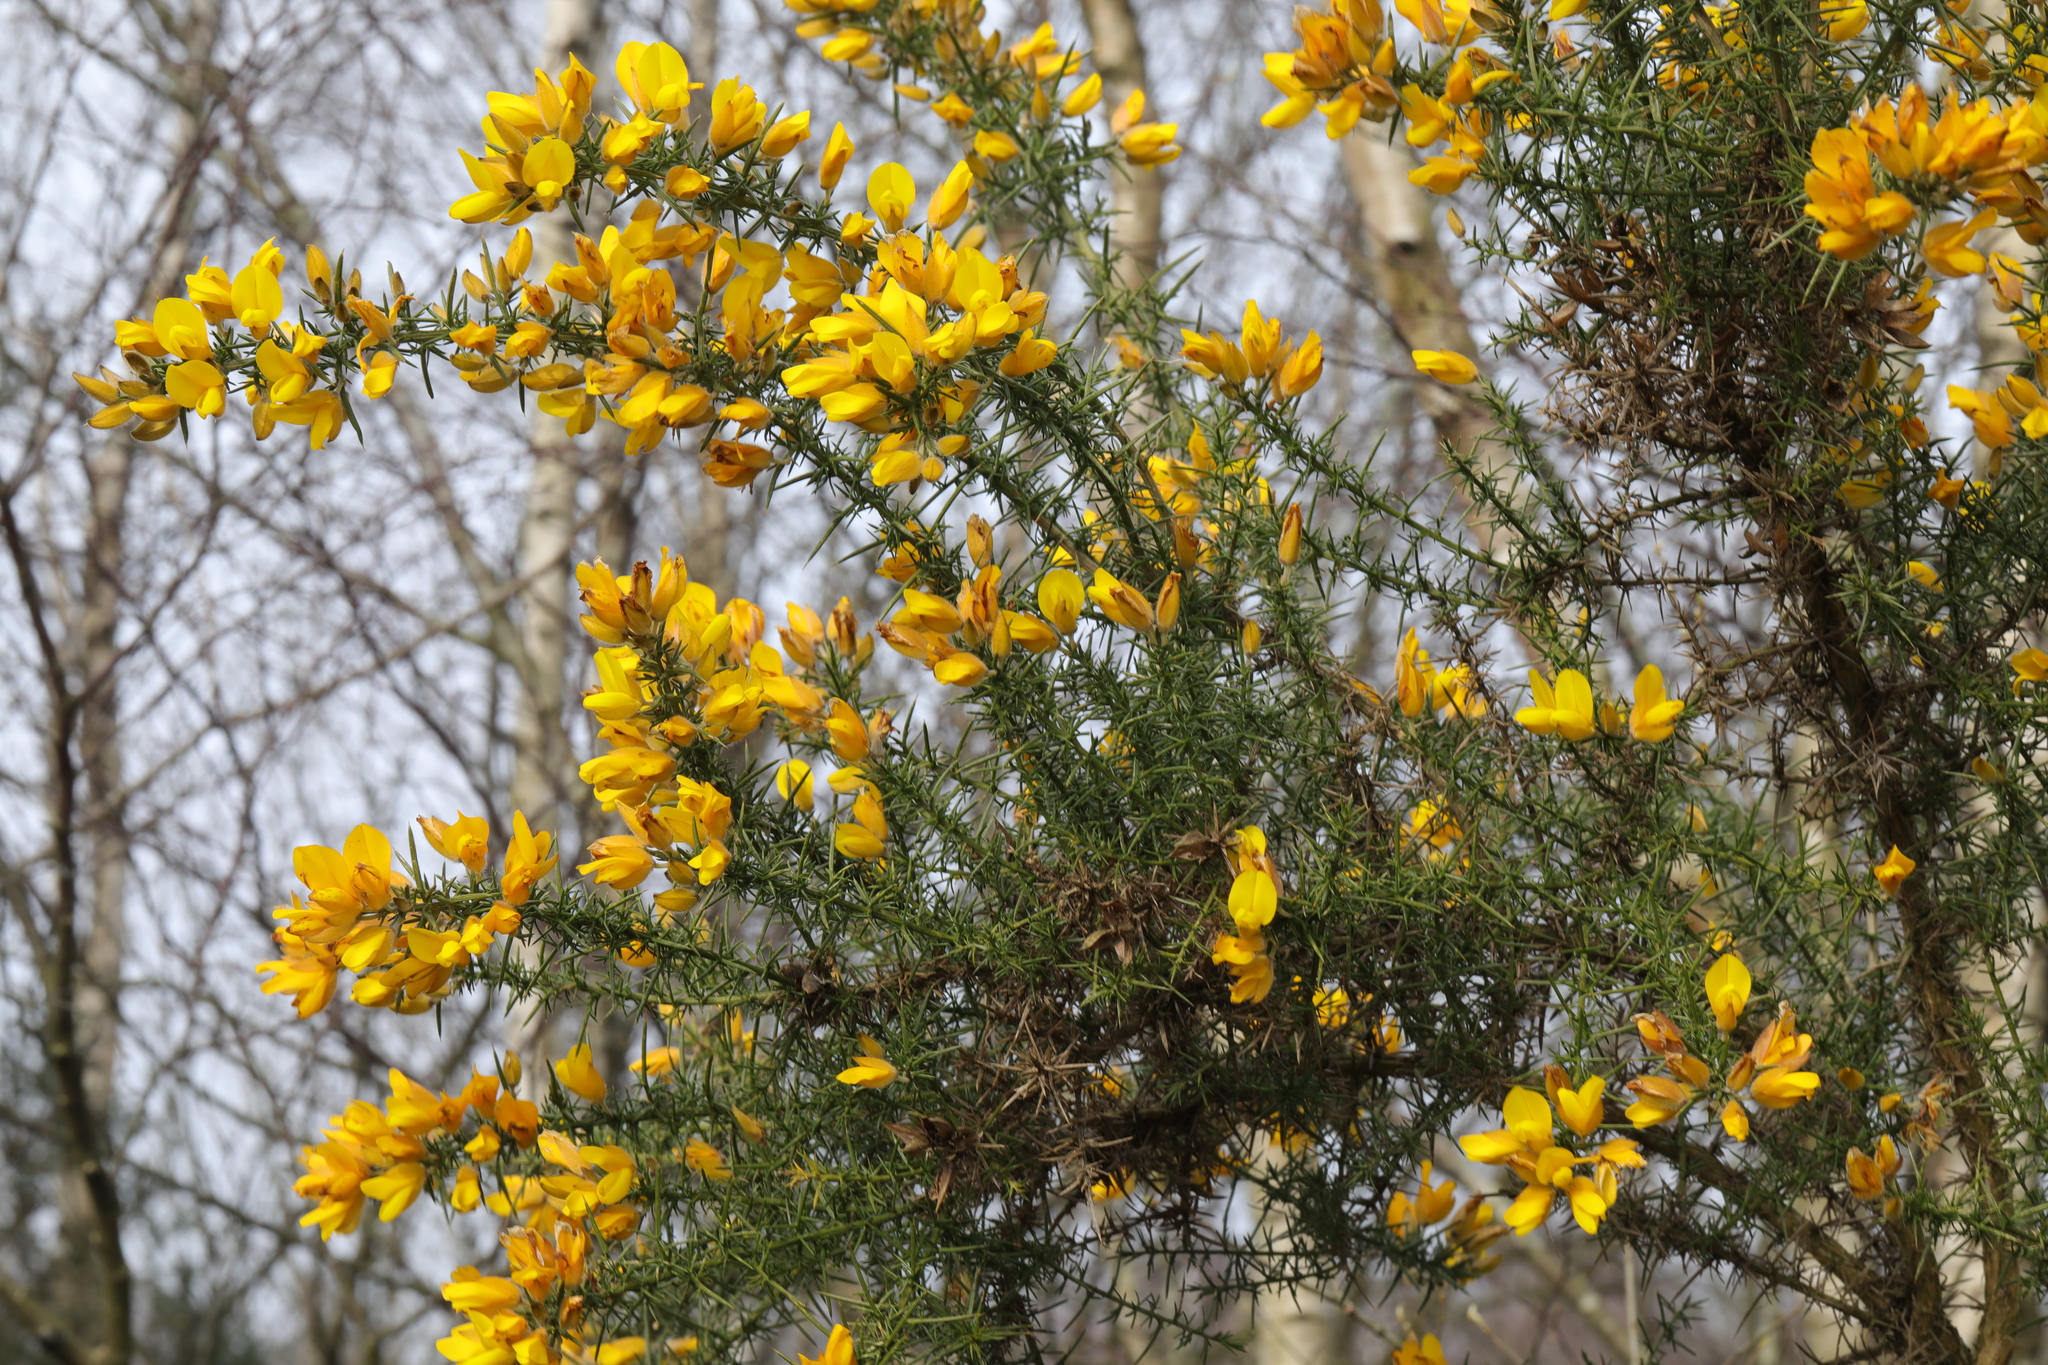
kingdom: Plantae
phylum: Tracheophyta
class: Magnoliopsida
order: Fabales
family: Fabaceae
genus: Ulex
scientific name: Ulex europaeus
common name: Common gorse
